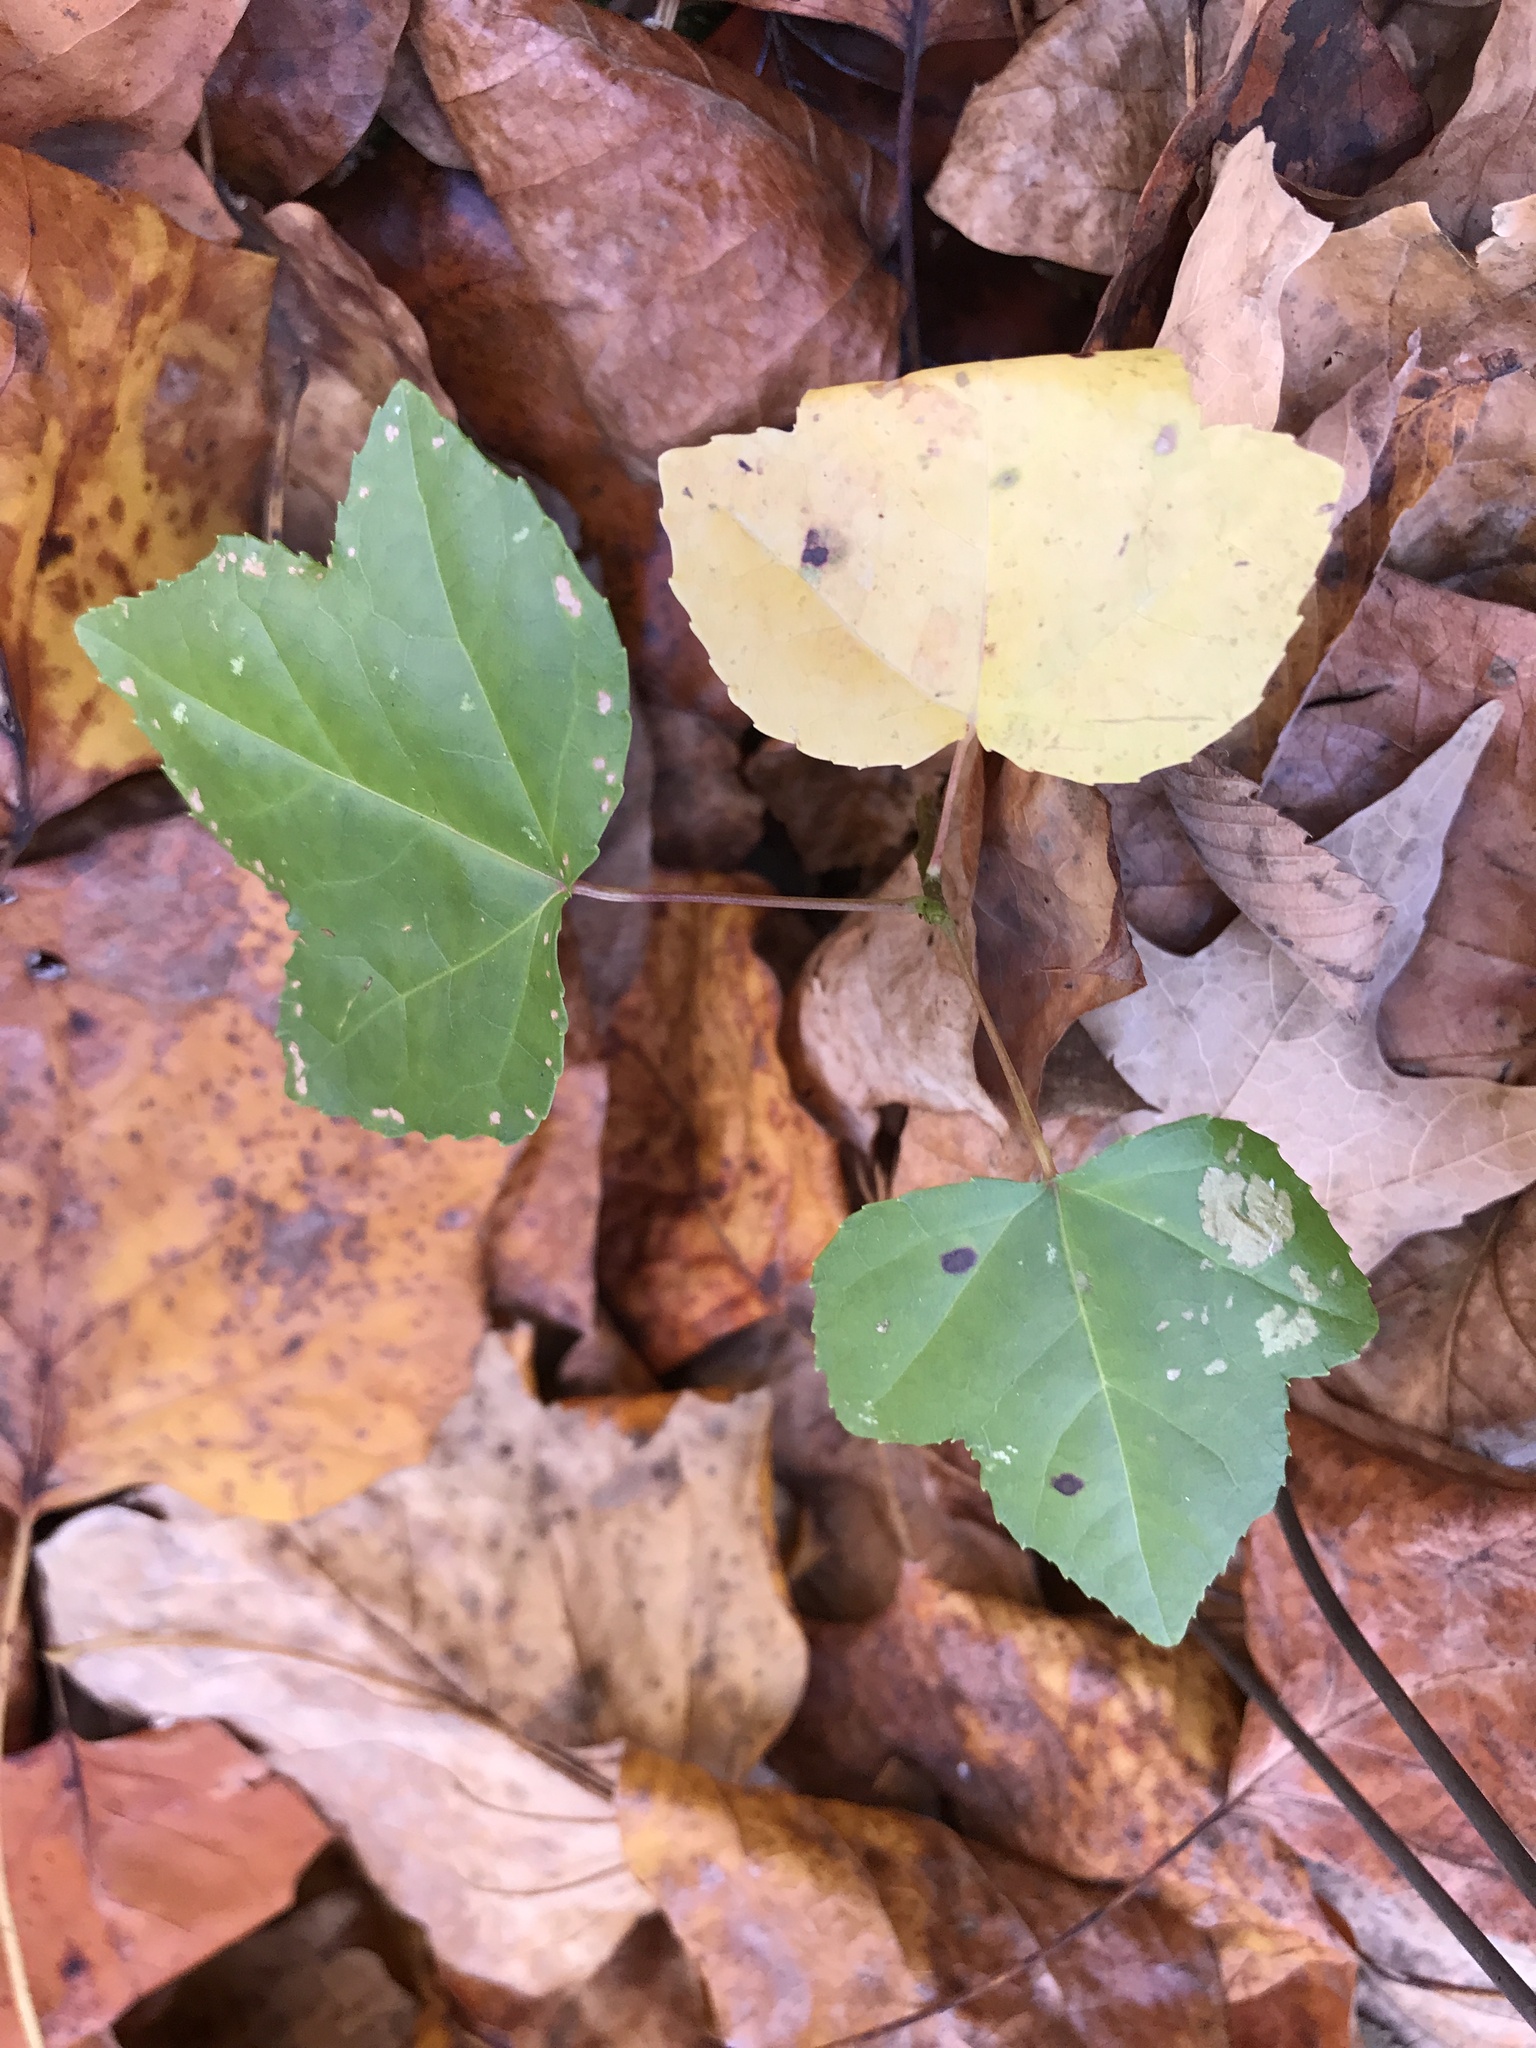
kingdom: Plantae
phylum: Tracheophyta
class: Magnoliopsida
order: Saxifragales
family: Altingiaceae
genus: Liquidambar
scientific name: Liquidambar styraciflua
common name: Sweet gum
